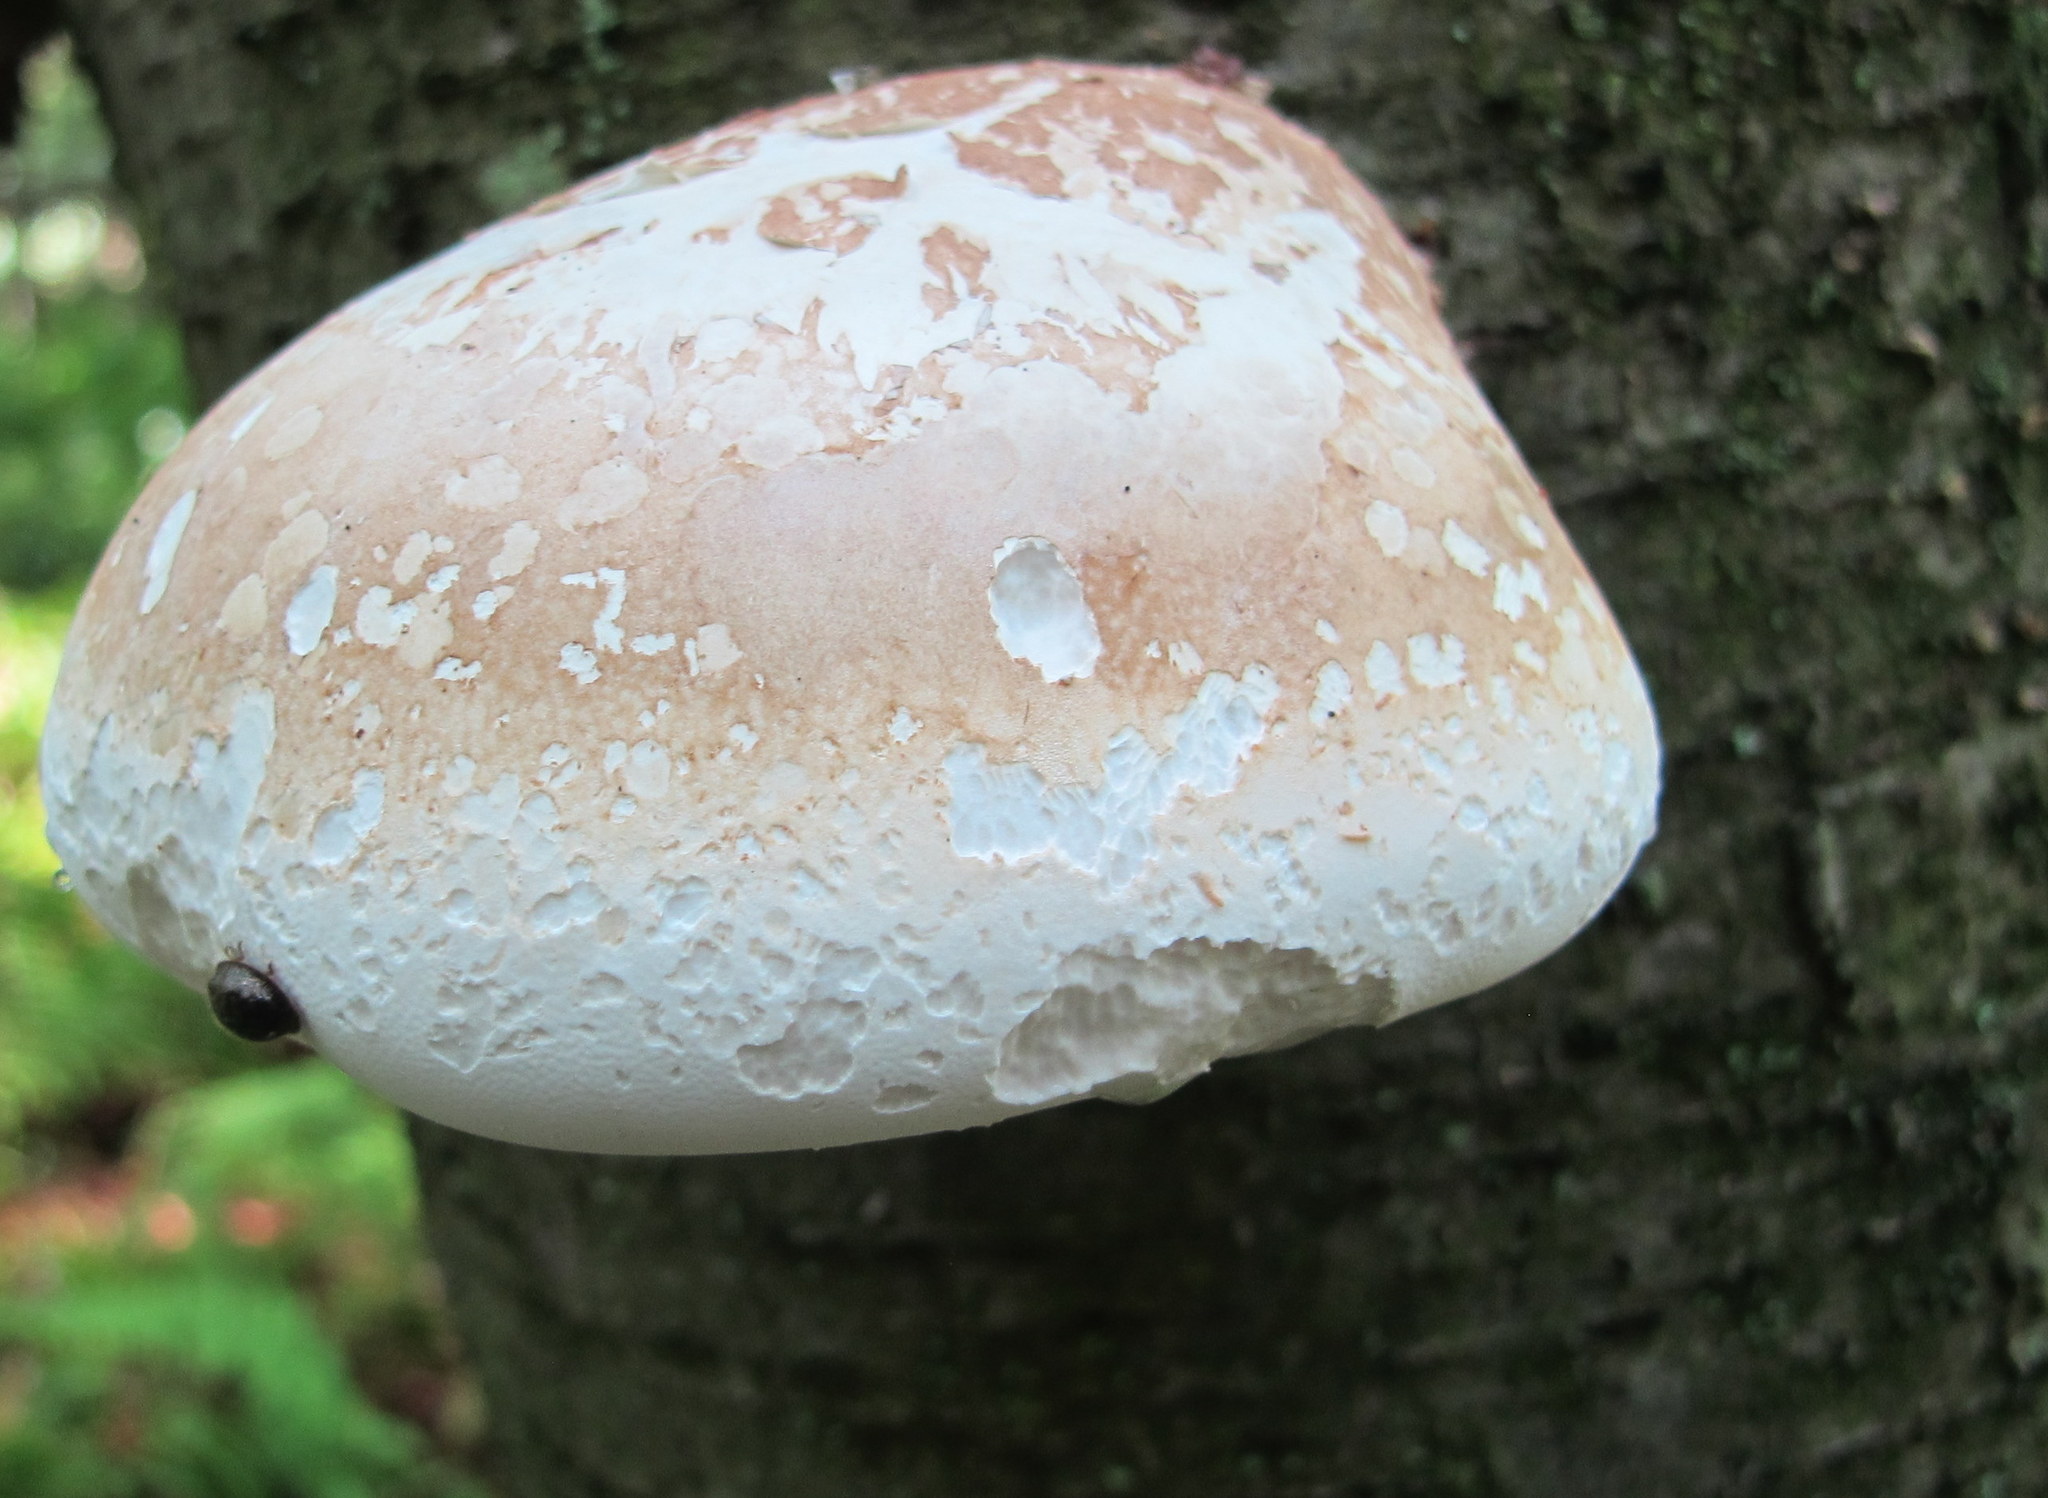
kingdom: Fungi
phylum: Basidiomycota
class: Agaricomycetes
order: Polyporales
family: Fomitopsidaceae
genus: Fomitopsis
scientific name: Fomitopsis betulina
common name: Birch polypore
